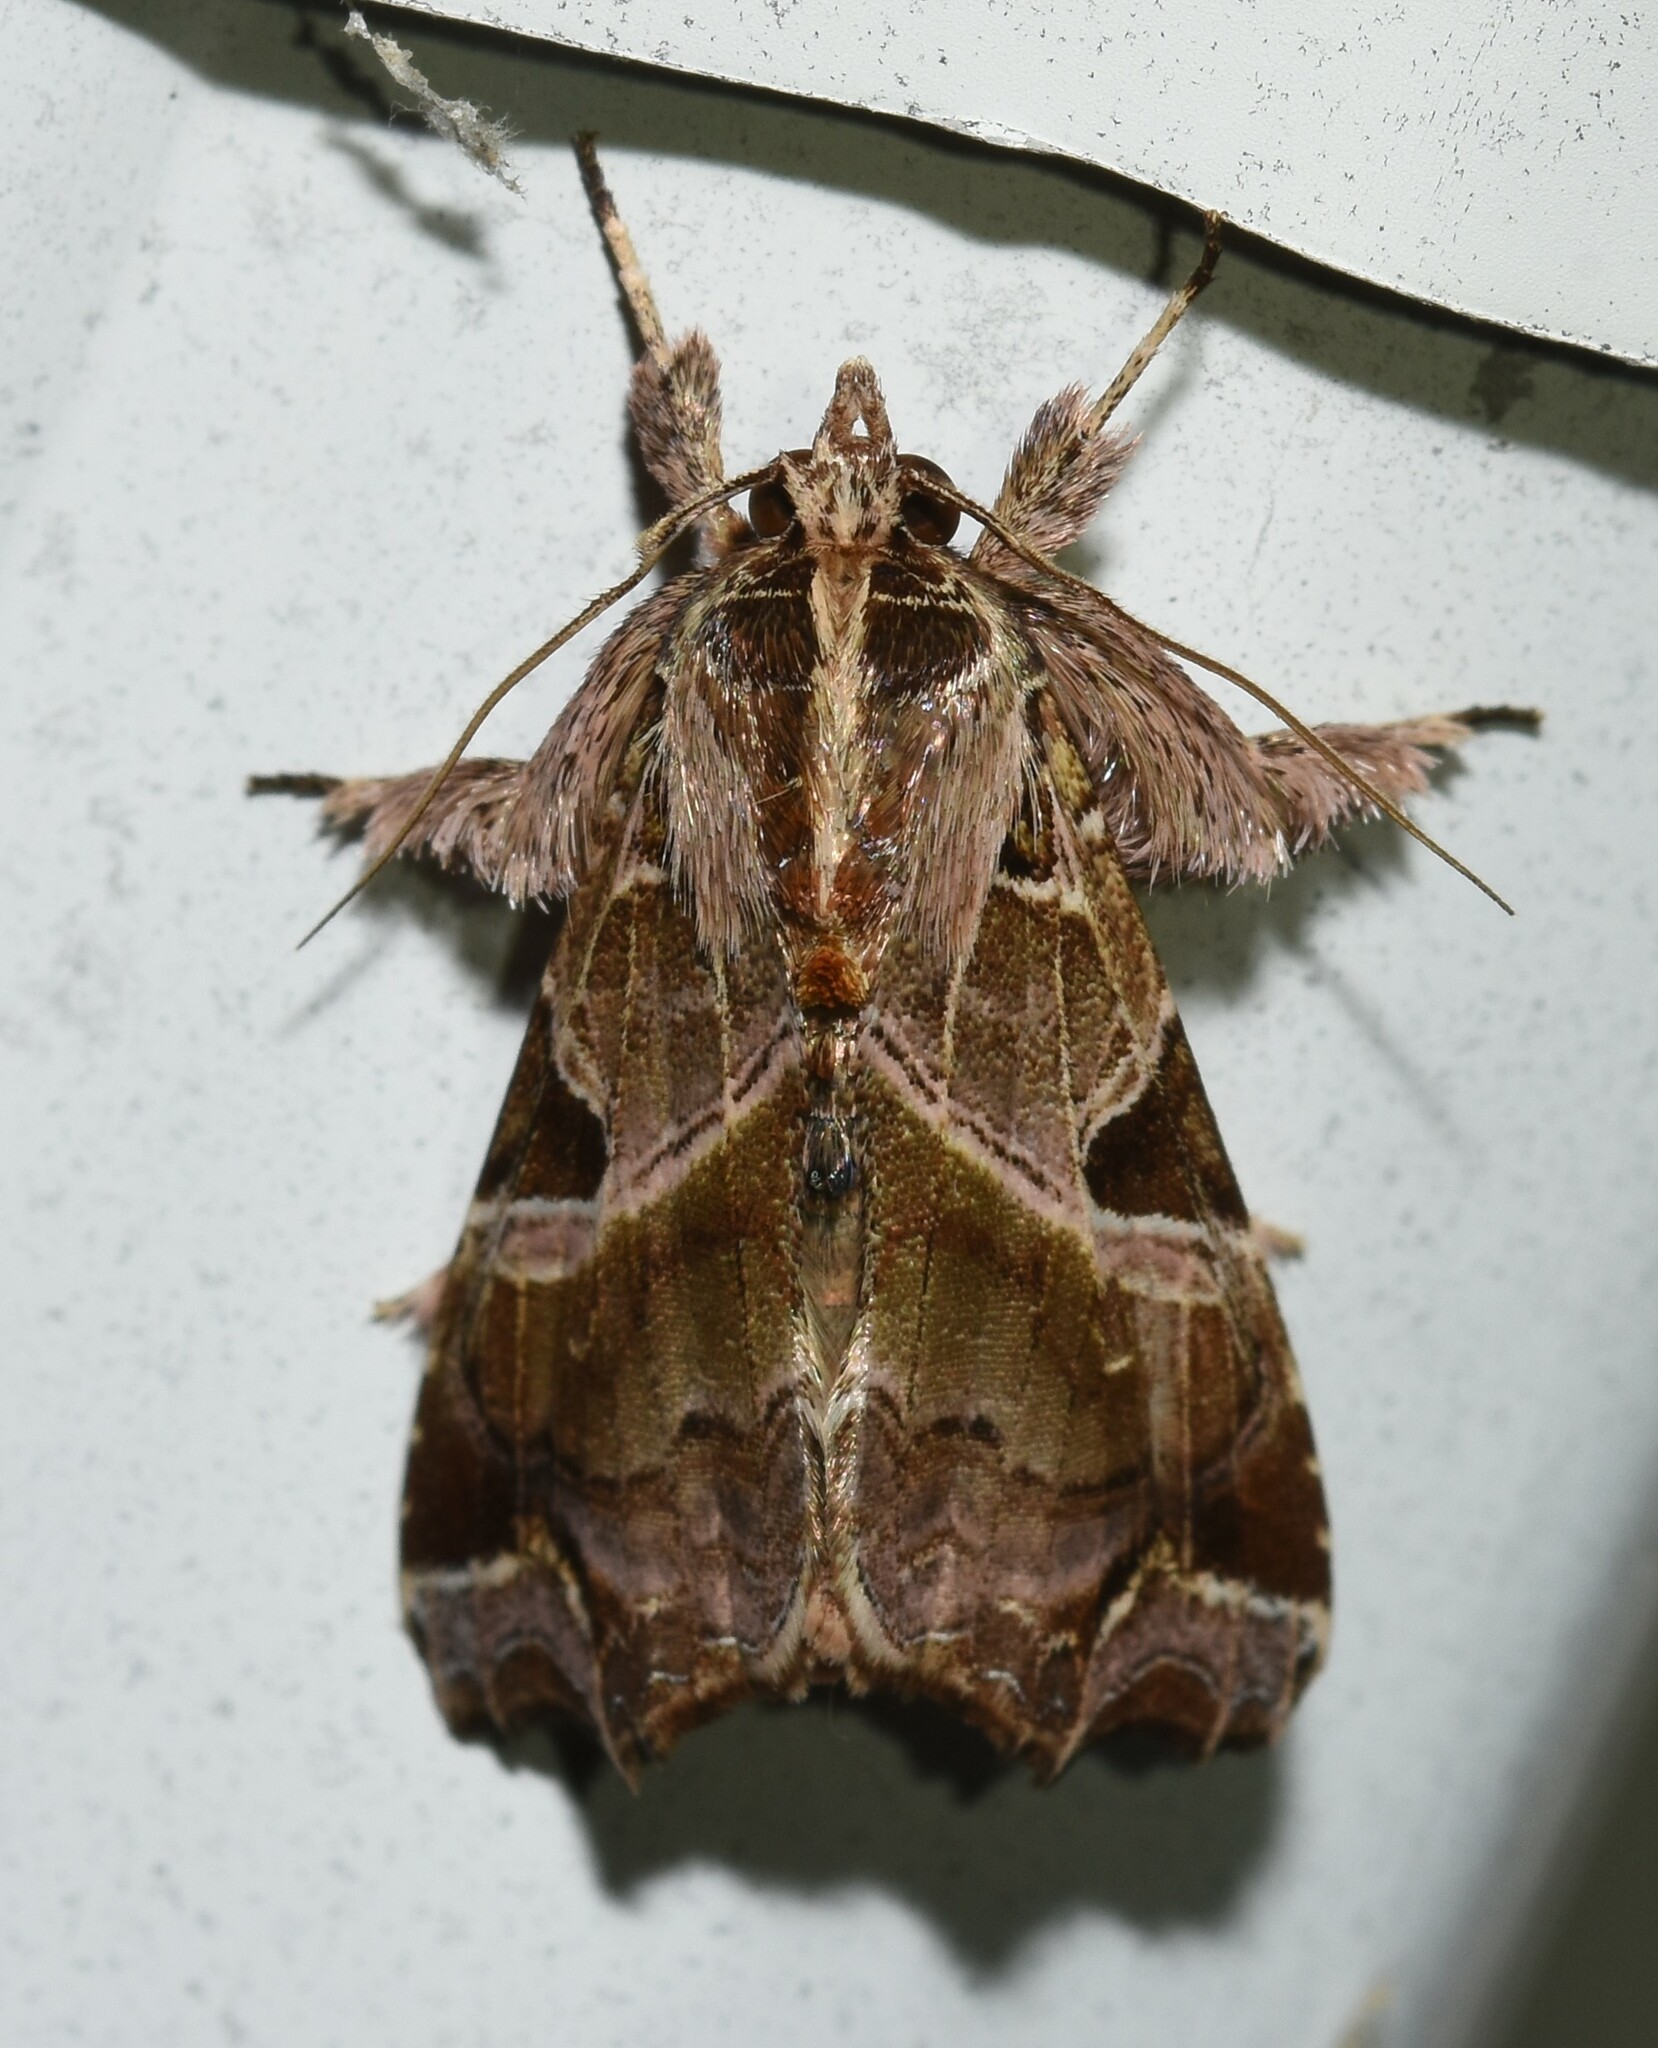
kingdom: Animalia
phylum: Arthropoda
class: Insecta
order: Lepidoptera
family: Noctuidae
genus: Callopistria
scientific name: Callopistria floridensis
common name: Florida fern moth
